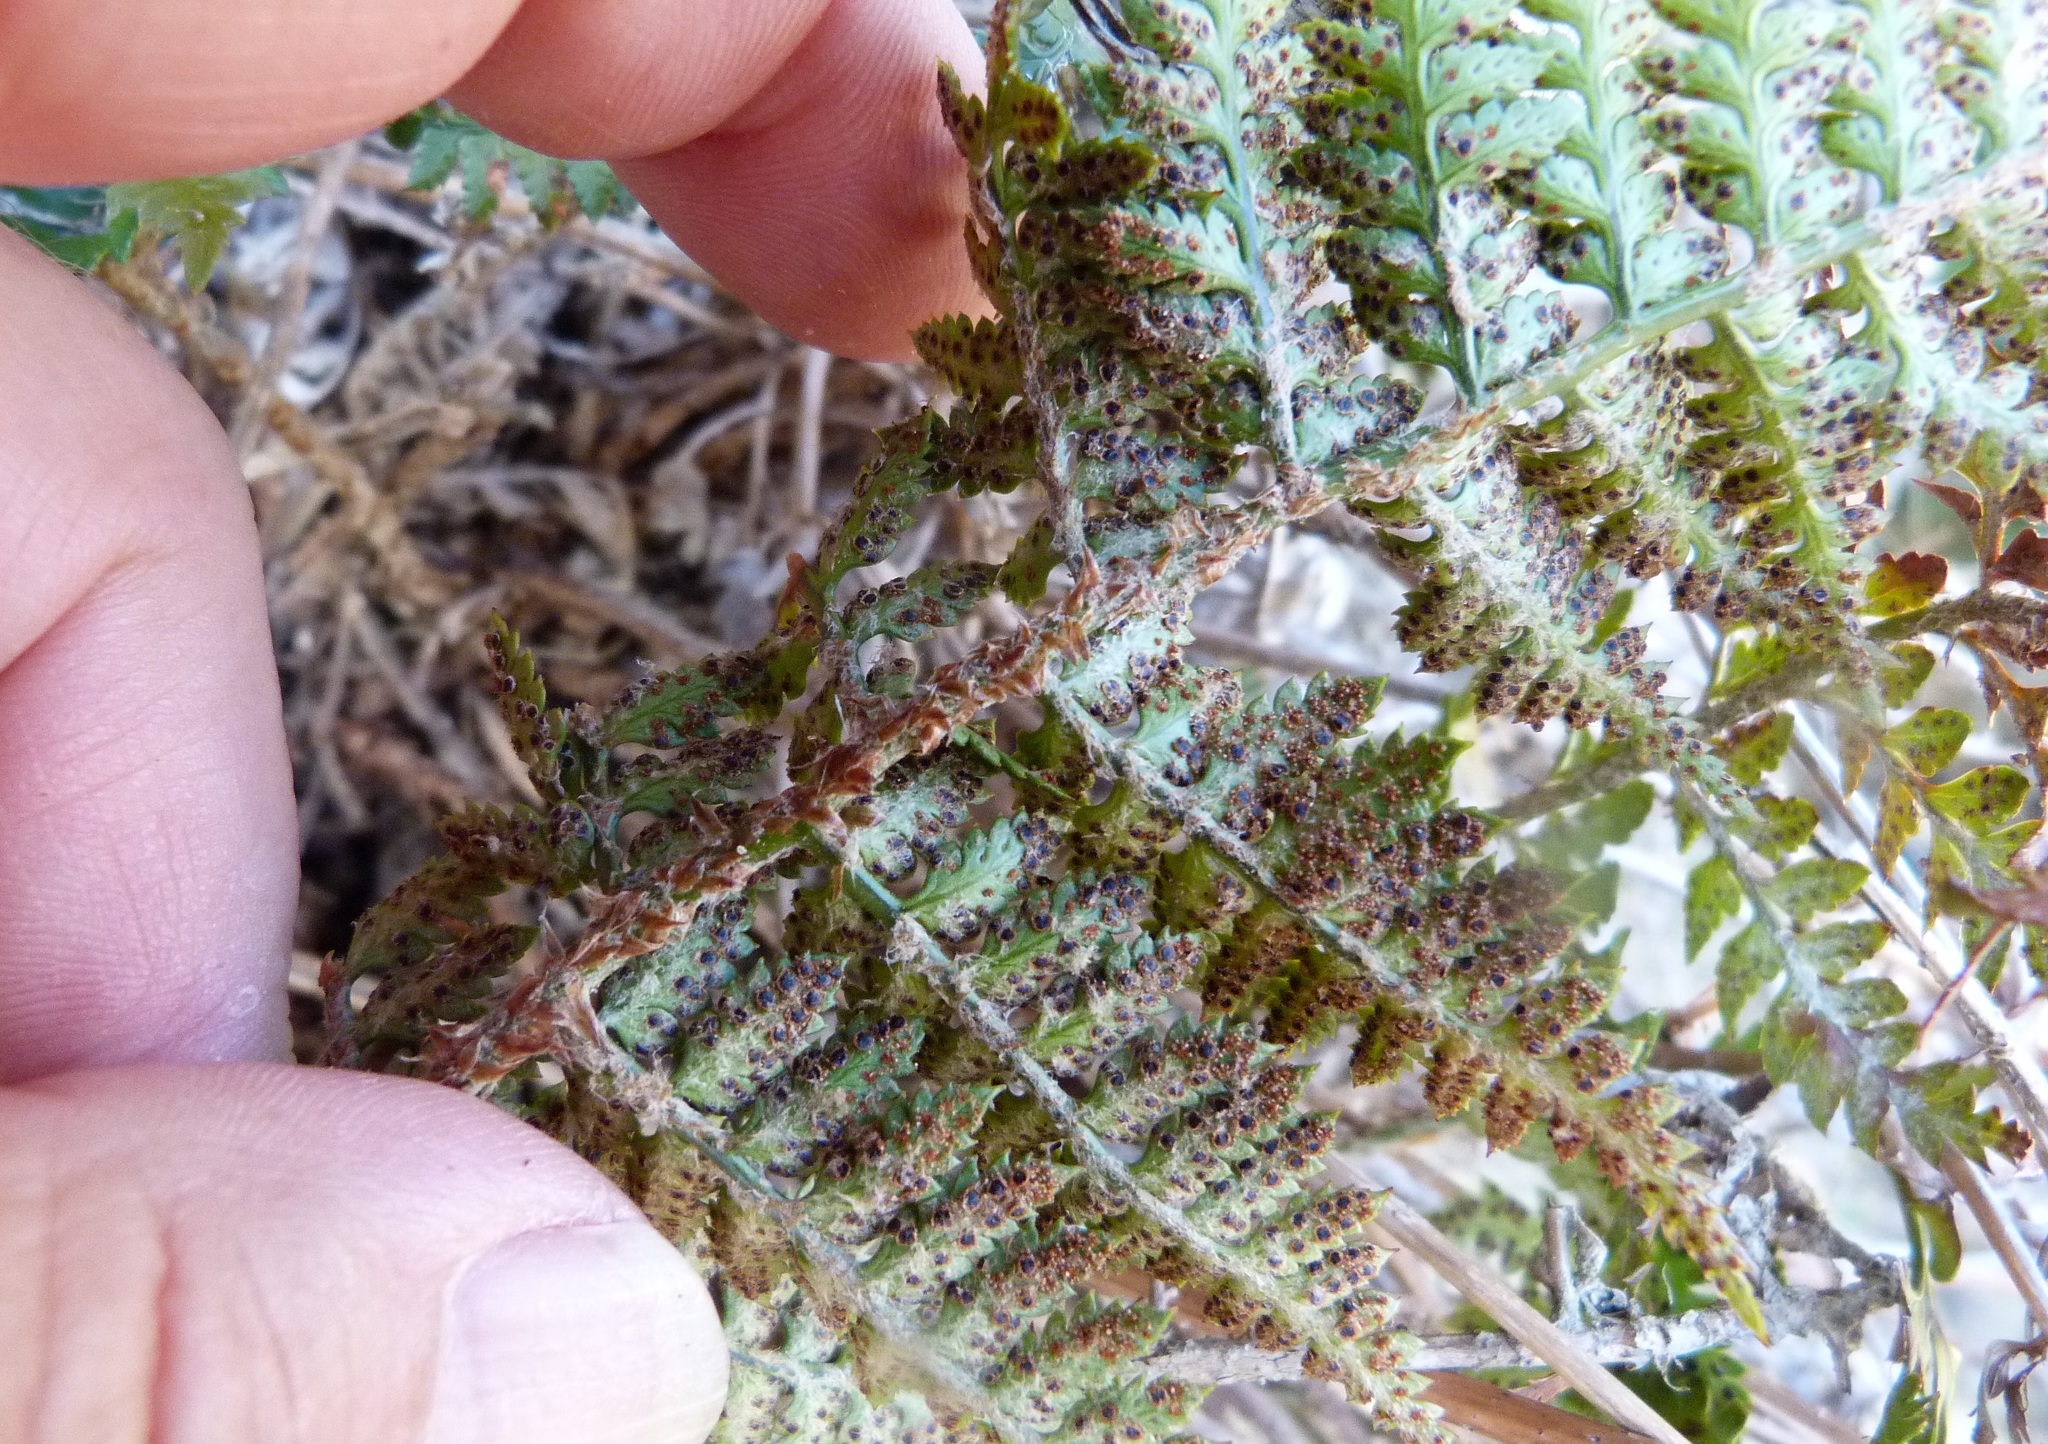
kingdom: Plantae
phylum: Tracheophyta
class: Polypodiopsida
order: Polypodiales
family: Dryopteridaceae
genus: Polystichum
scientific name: Polystichum oculatum
